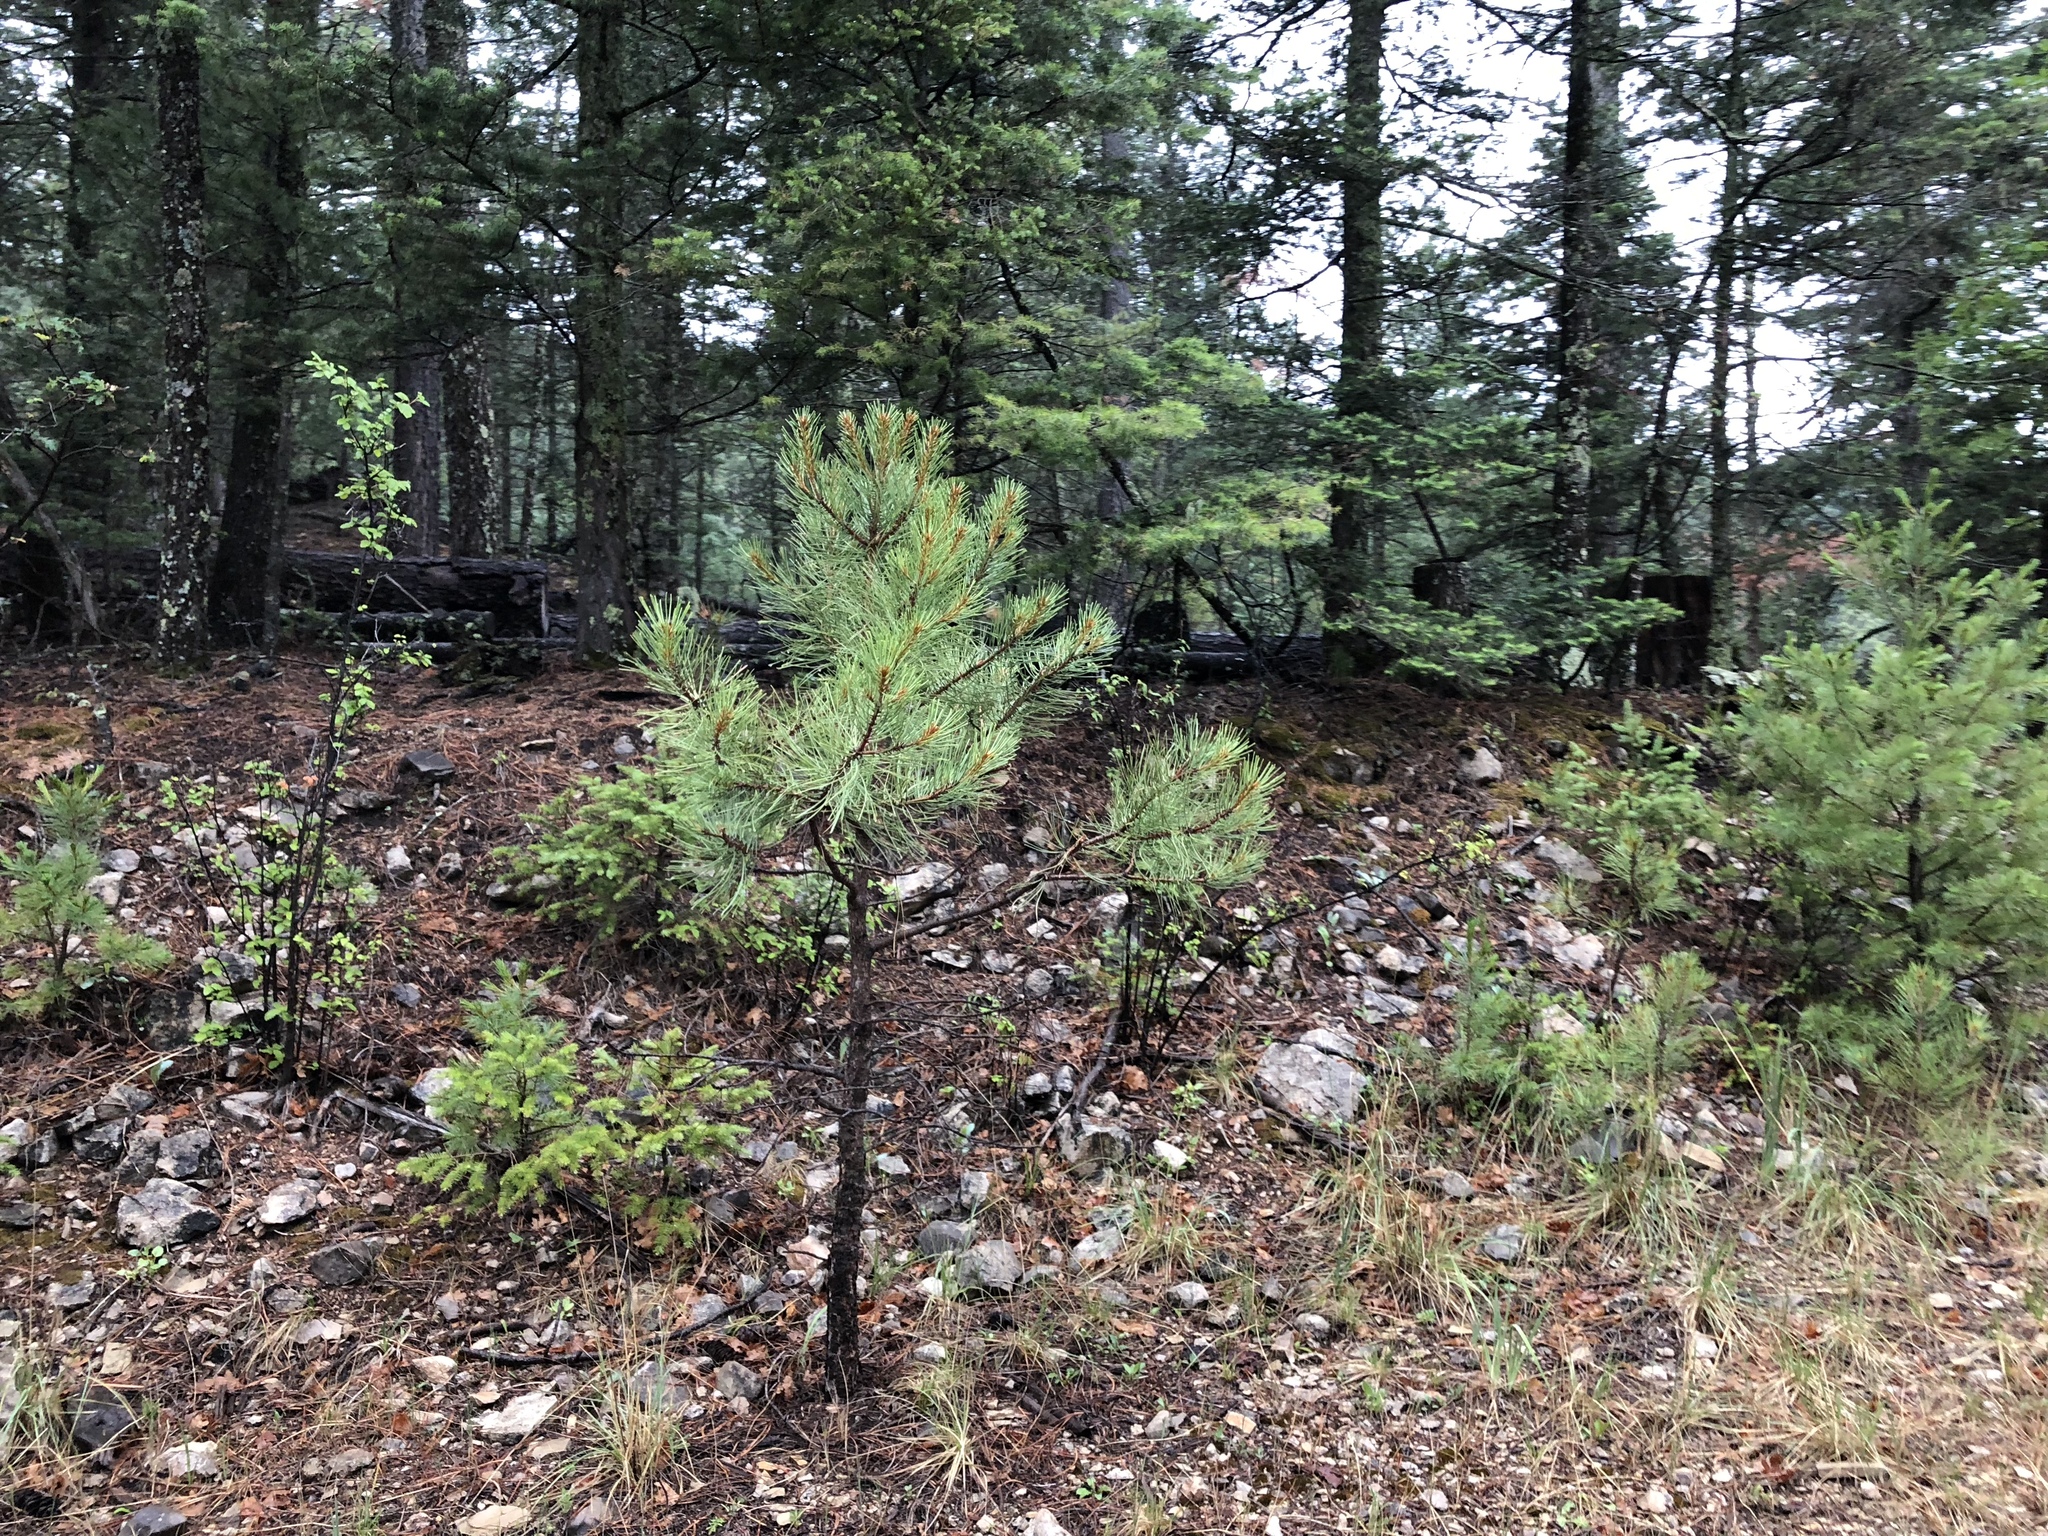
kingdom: Plantae
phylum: Tracheophyta
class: Pinopsida
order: Pinales
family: Pinaceae
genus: Pinus
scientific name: Pinus ponderosa
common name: Western yellow-pine
